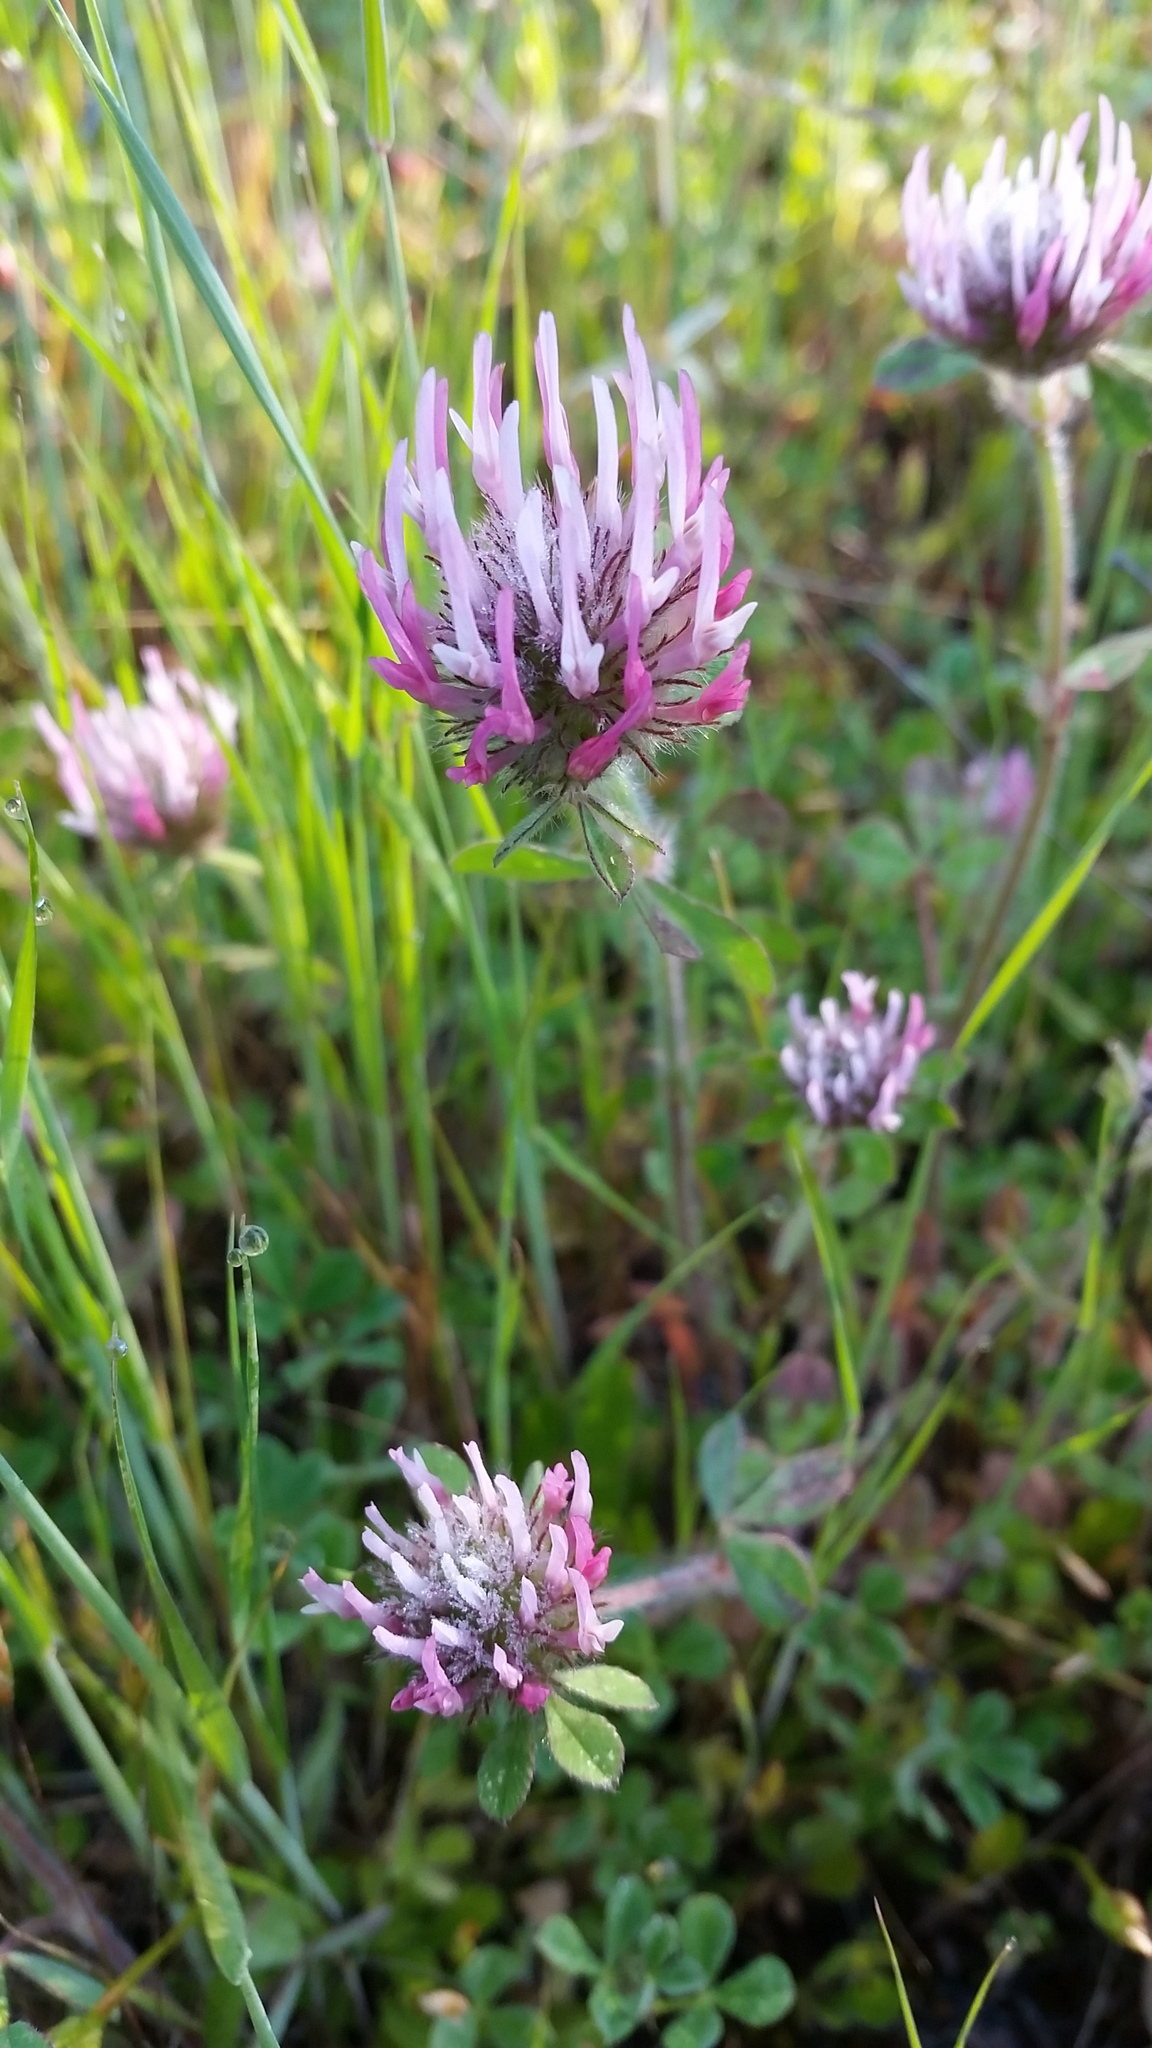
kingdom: Plantae
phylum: Tracheophyta
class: Magnoliopsida
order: Fabales
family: Fabaceae
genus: Trifolium
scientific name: Trifolium hirtum
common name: Rose clover
